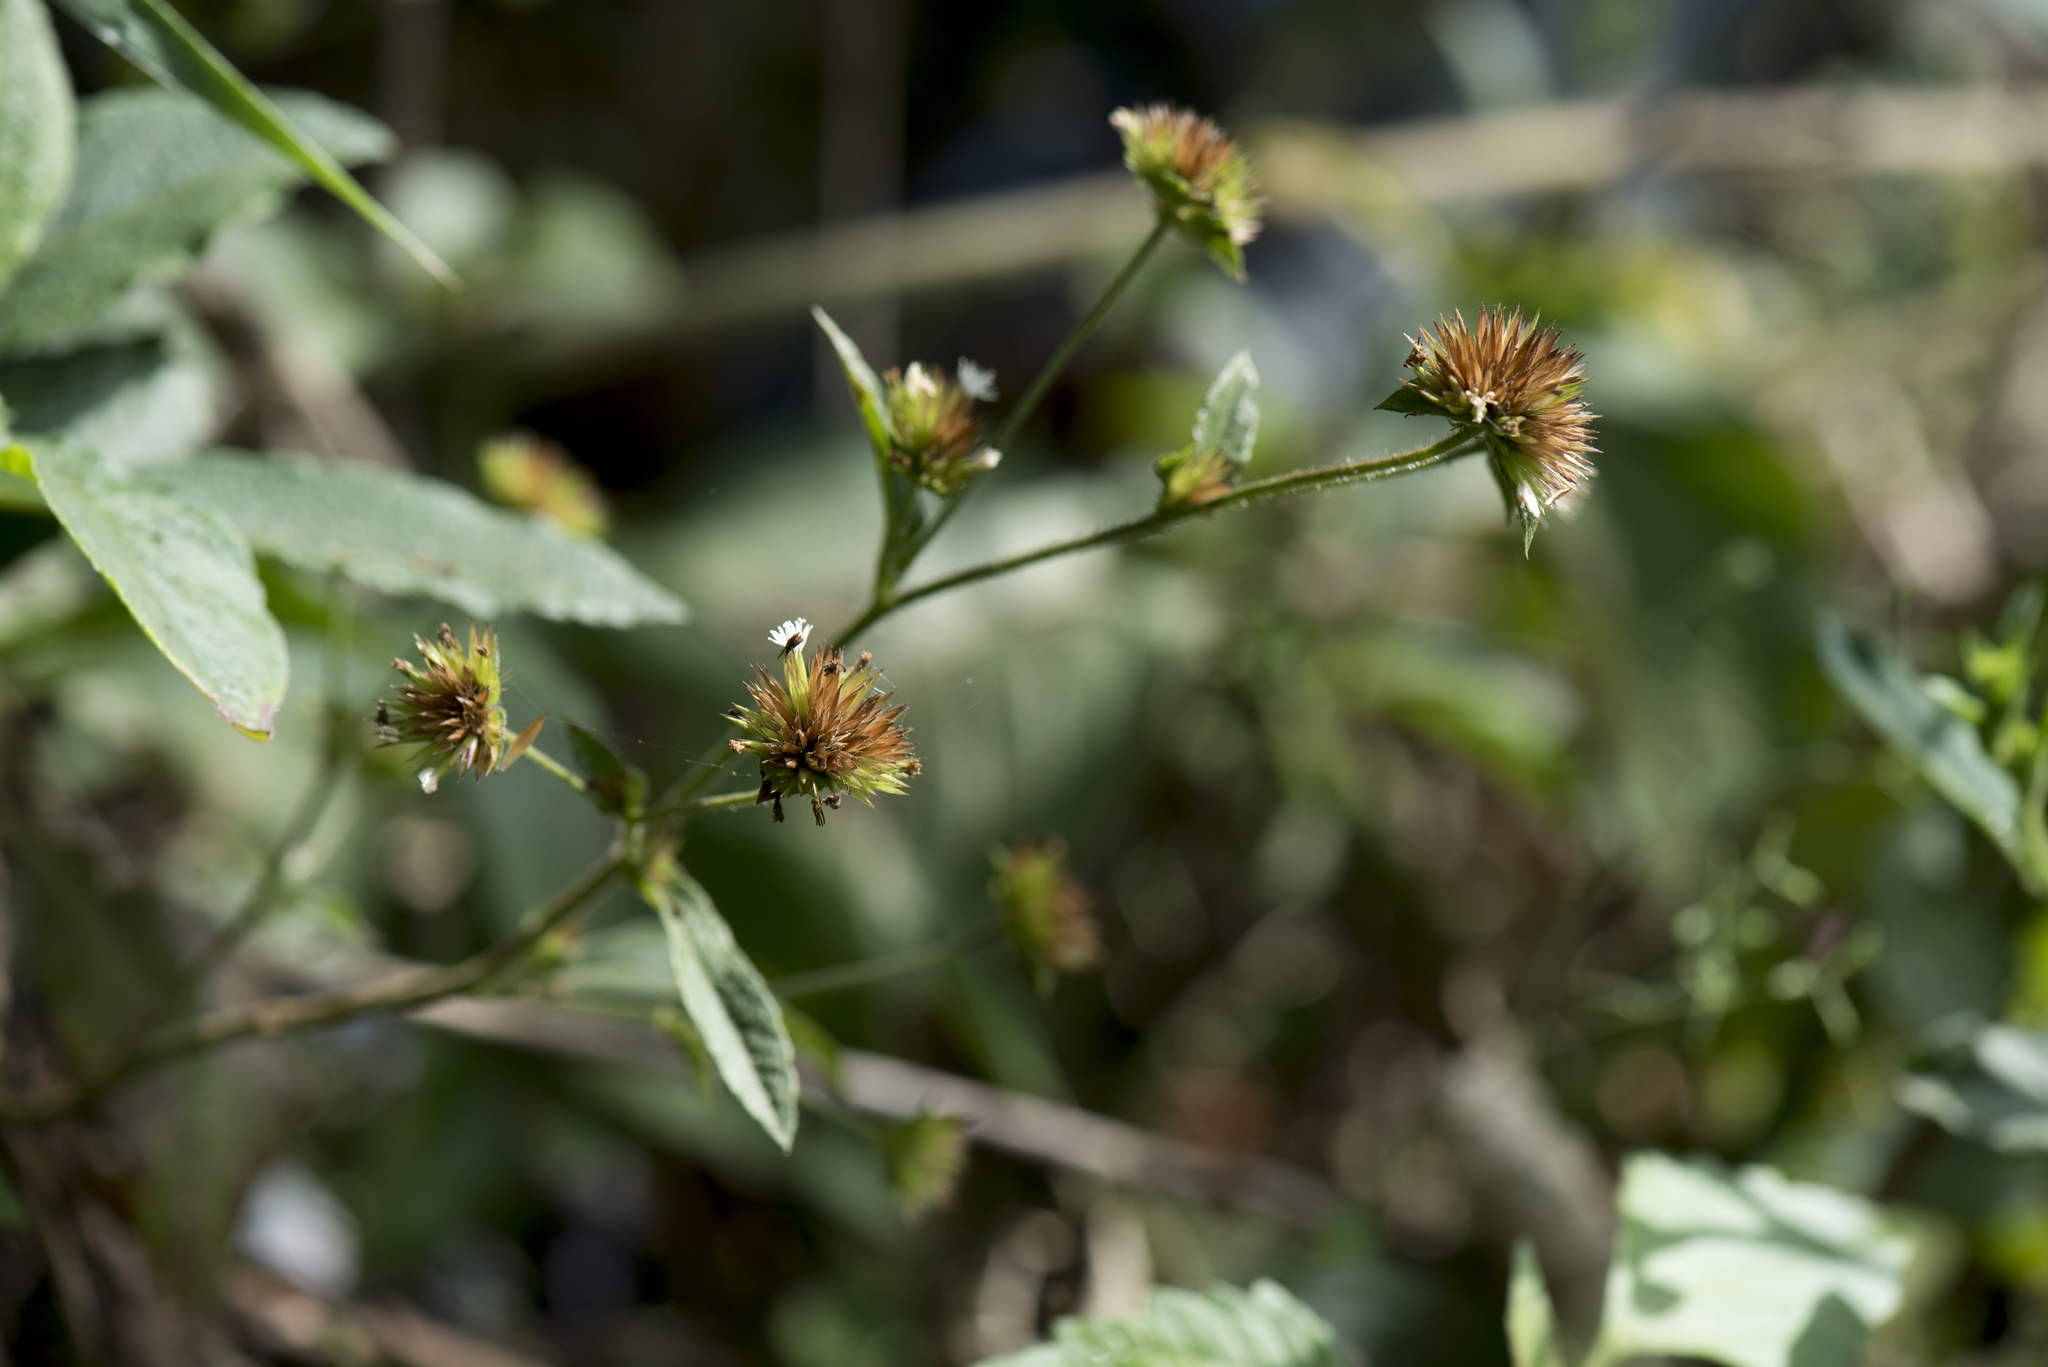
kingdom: Plantae
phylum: Tracheophyta
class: Magnoliopsida
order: Asterales
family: Asteraceae
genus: Elephantopus
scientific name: Elephantopus mollis
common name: Soft elephantsfoot
